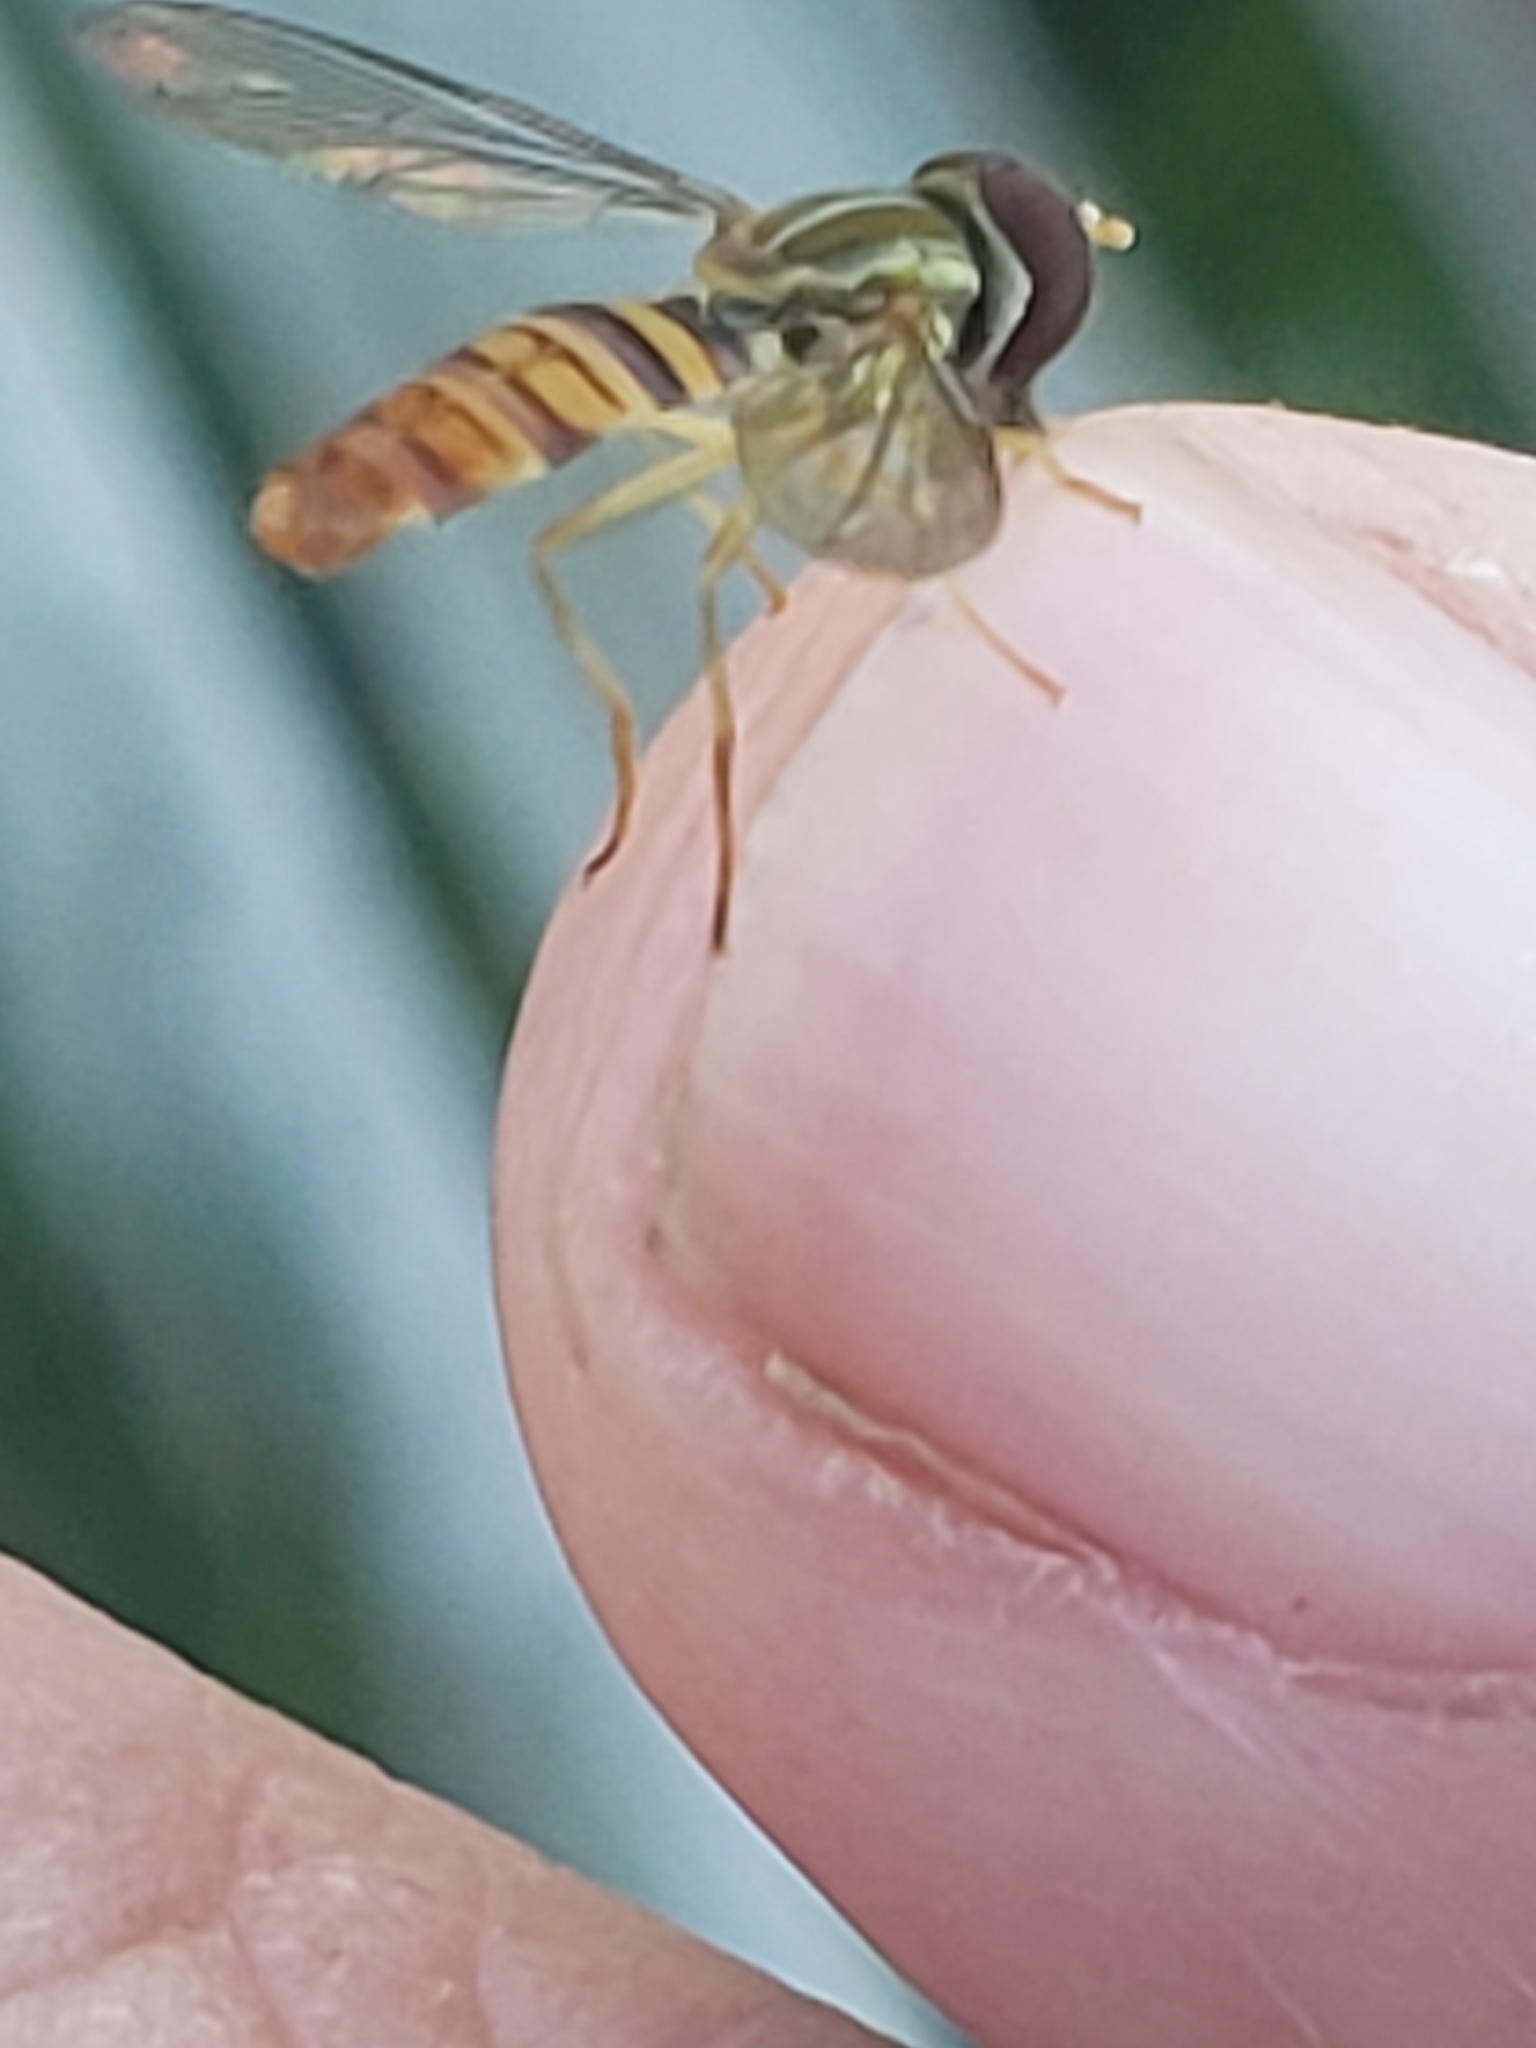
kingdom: Animalia
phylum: Arthropoda
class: Insecta
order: Diptera
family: Syrphidae
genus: Toxomerus
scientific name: Toxomerus politus
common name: Maize calligrapher
